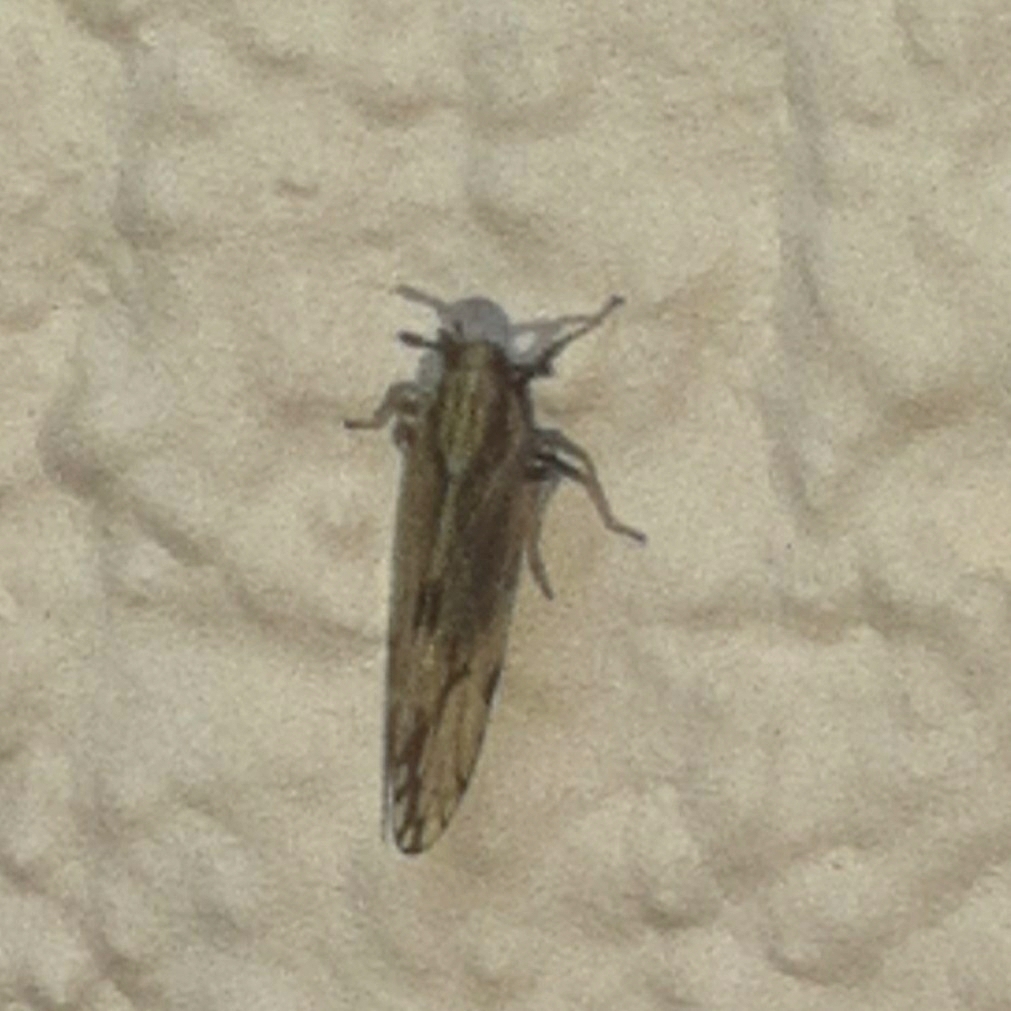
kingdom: Animalia
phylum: Arthropoda
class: Insecta
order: Hemiptera
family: Delphacidae
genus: Peregrinus
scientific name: Peregrinus maidis
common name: Corn leafhopper
